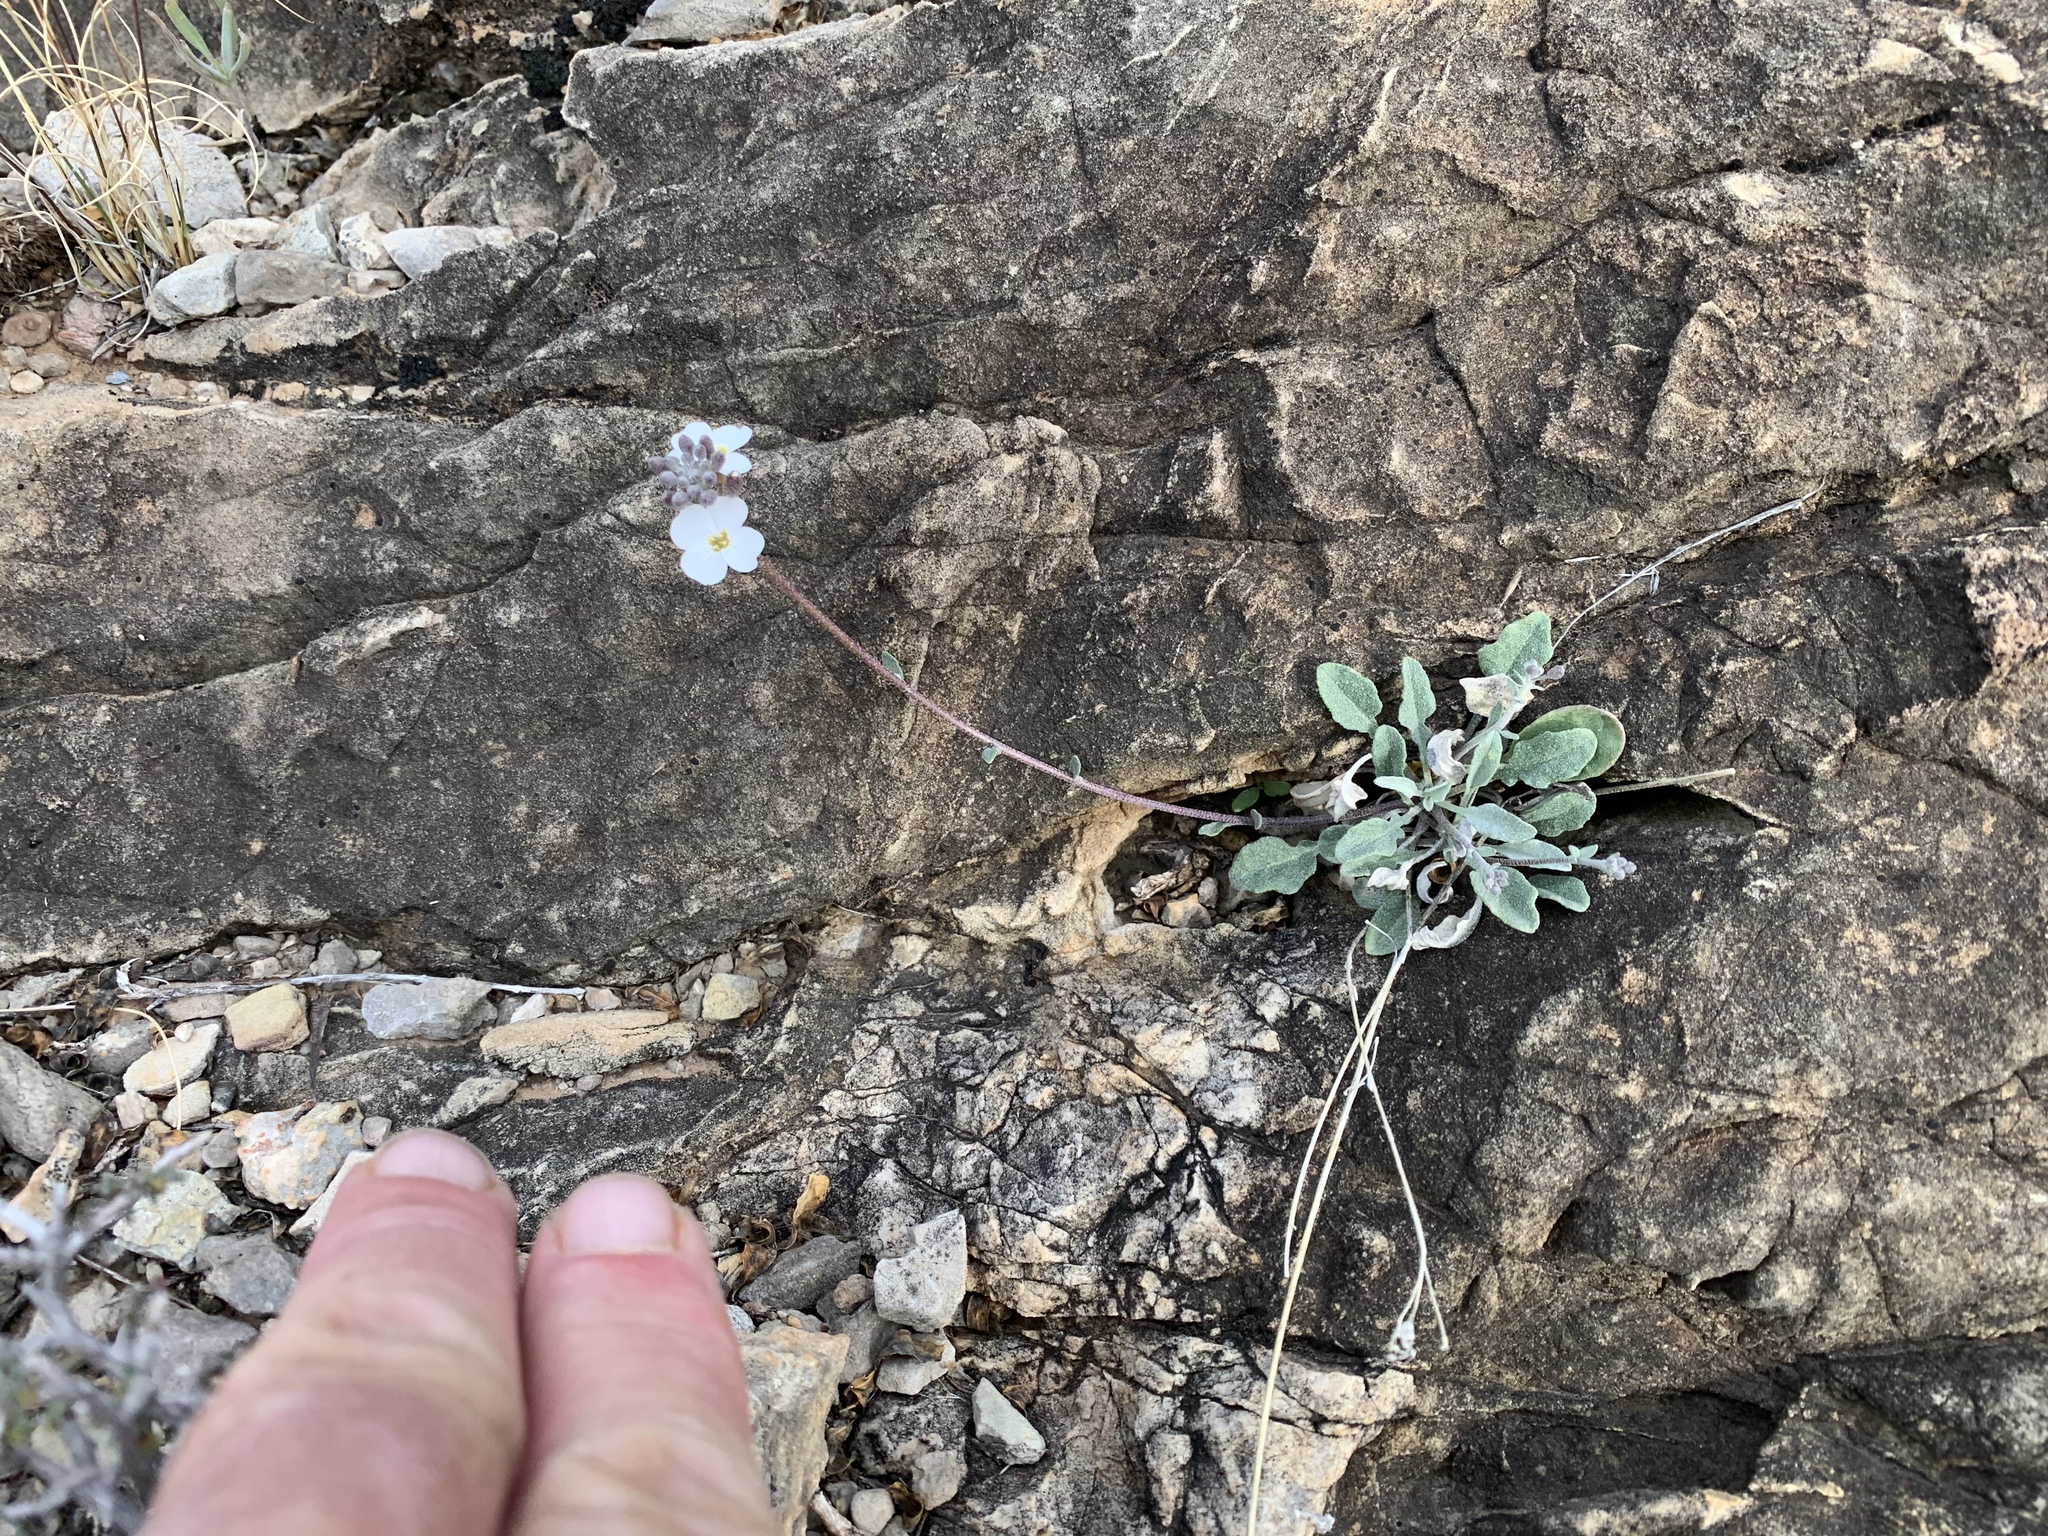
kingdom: Plantae
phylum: Tracheophyta
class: Magnoliopsida
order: Brassicales
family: Brassicaceae
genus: Physaria
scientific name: Physaria purpurea
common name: Rose bladderpod
